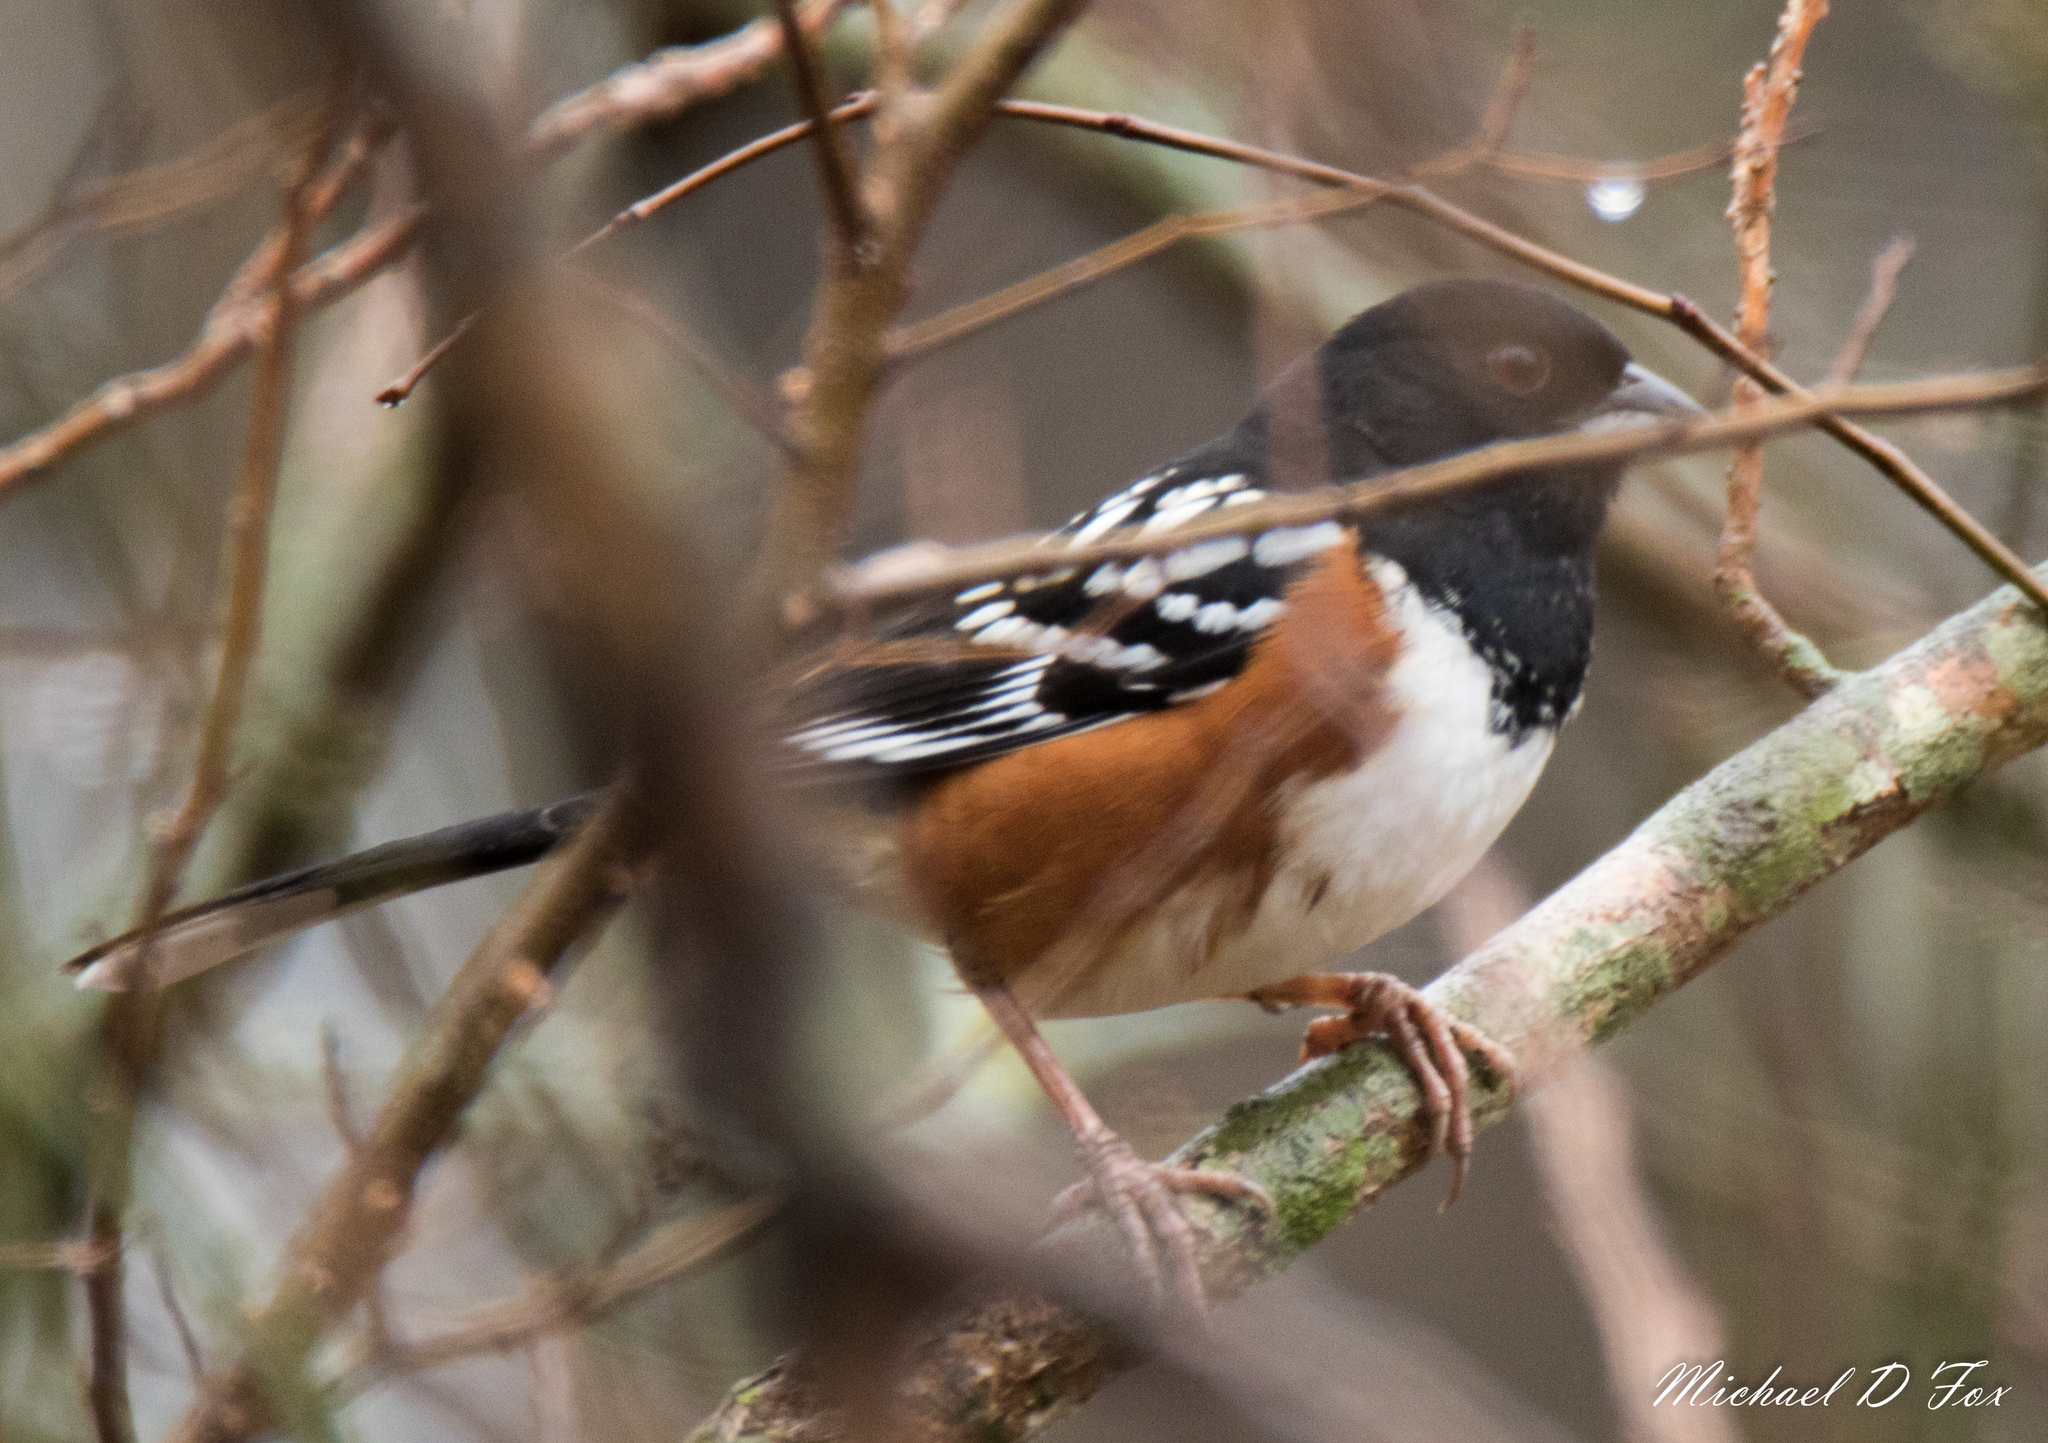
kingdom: Animalia
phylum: Chordata
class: Aves
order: Passeriformes
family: Passerellidae
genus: Pipilo
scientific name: Pipilo maculatus
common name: Spotted towhee
